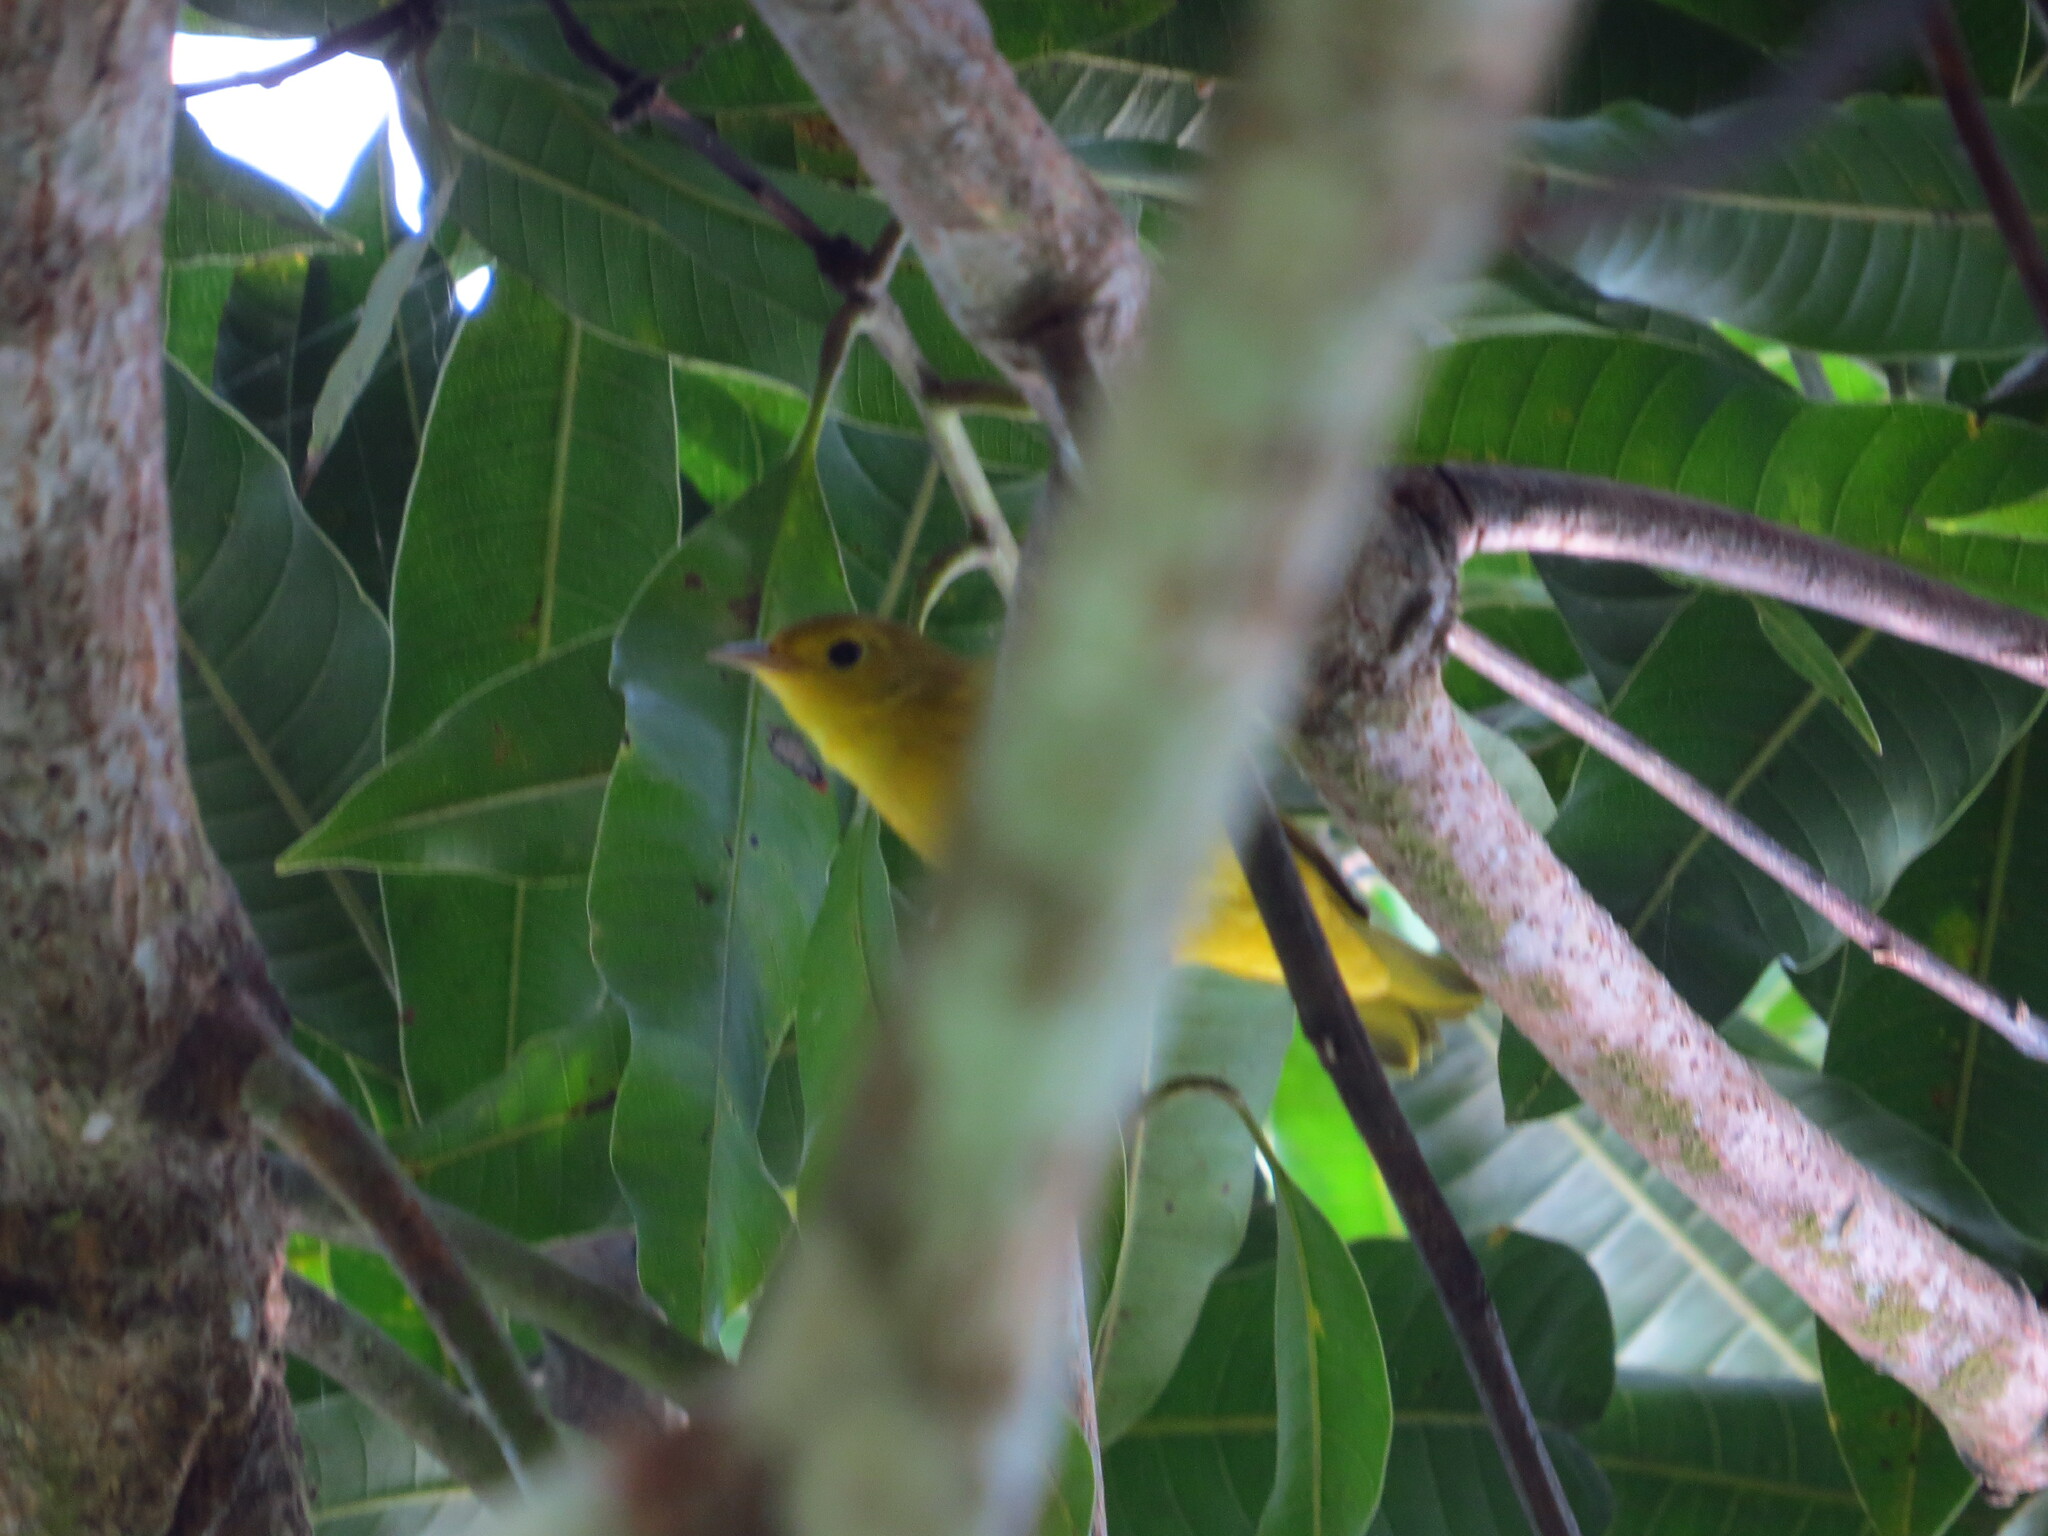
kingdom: Animalia
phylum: Chordata
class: Aves
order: Passeriformes
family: Parulidae
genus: Setophaga
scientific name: Setophaga petechia
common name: Yellow warbler
